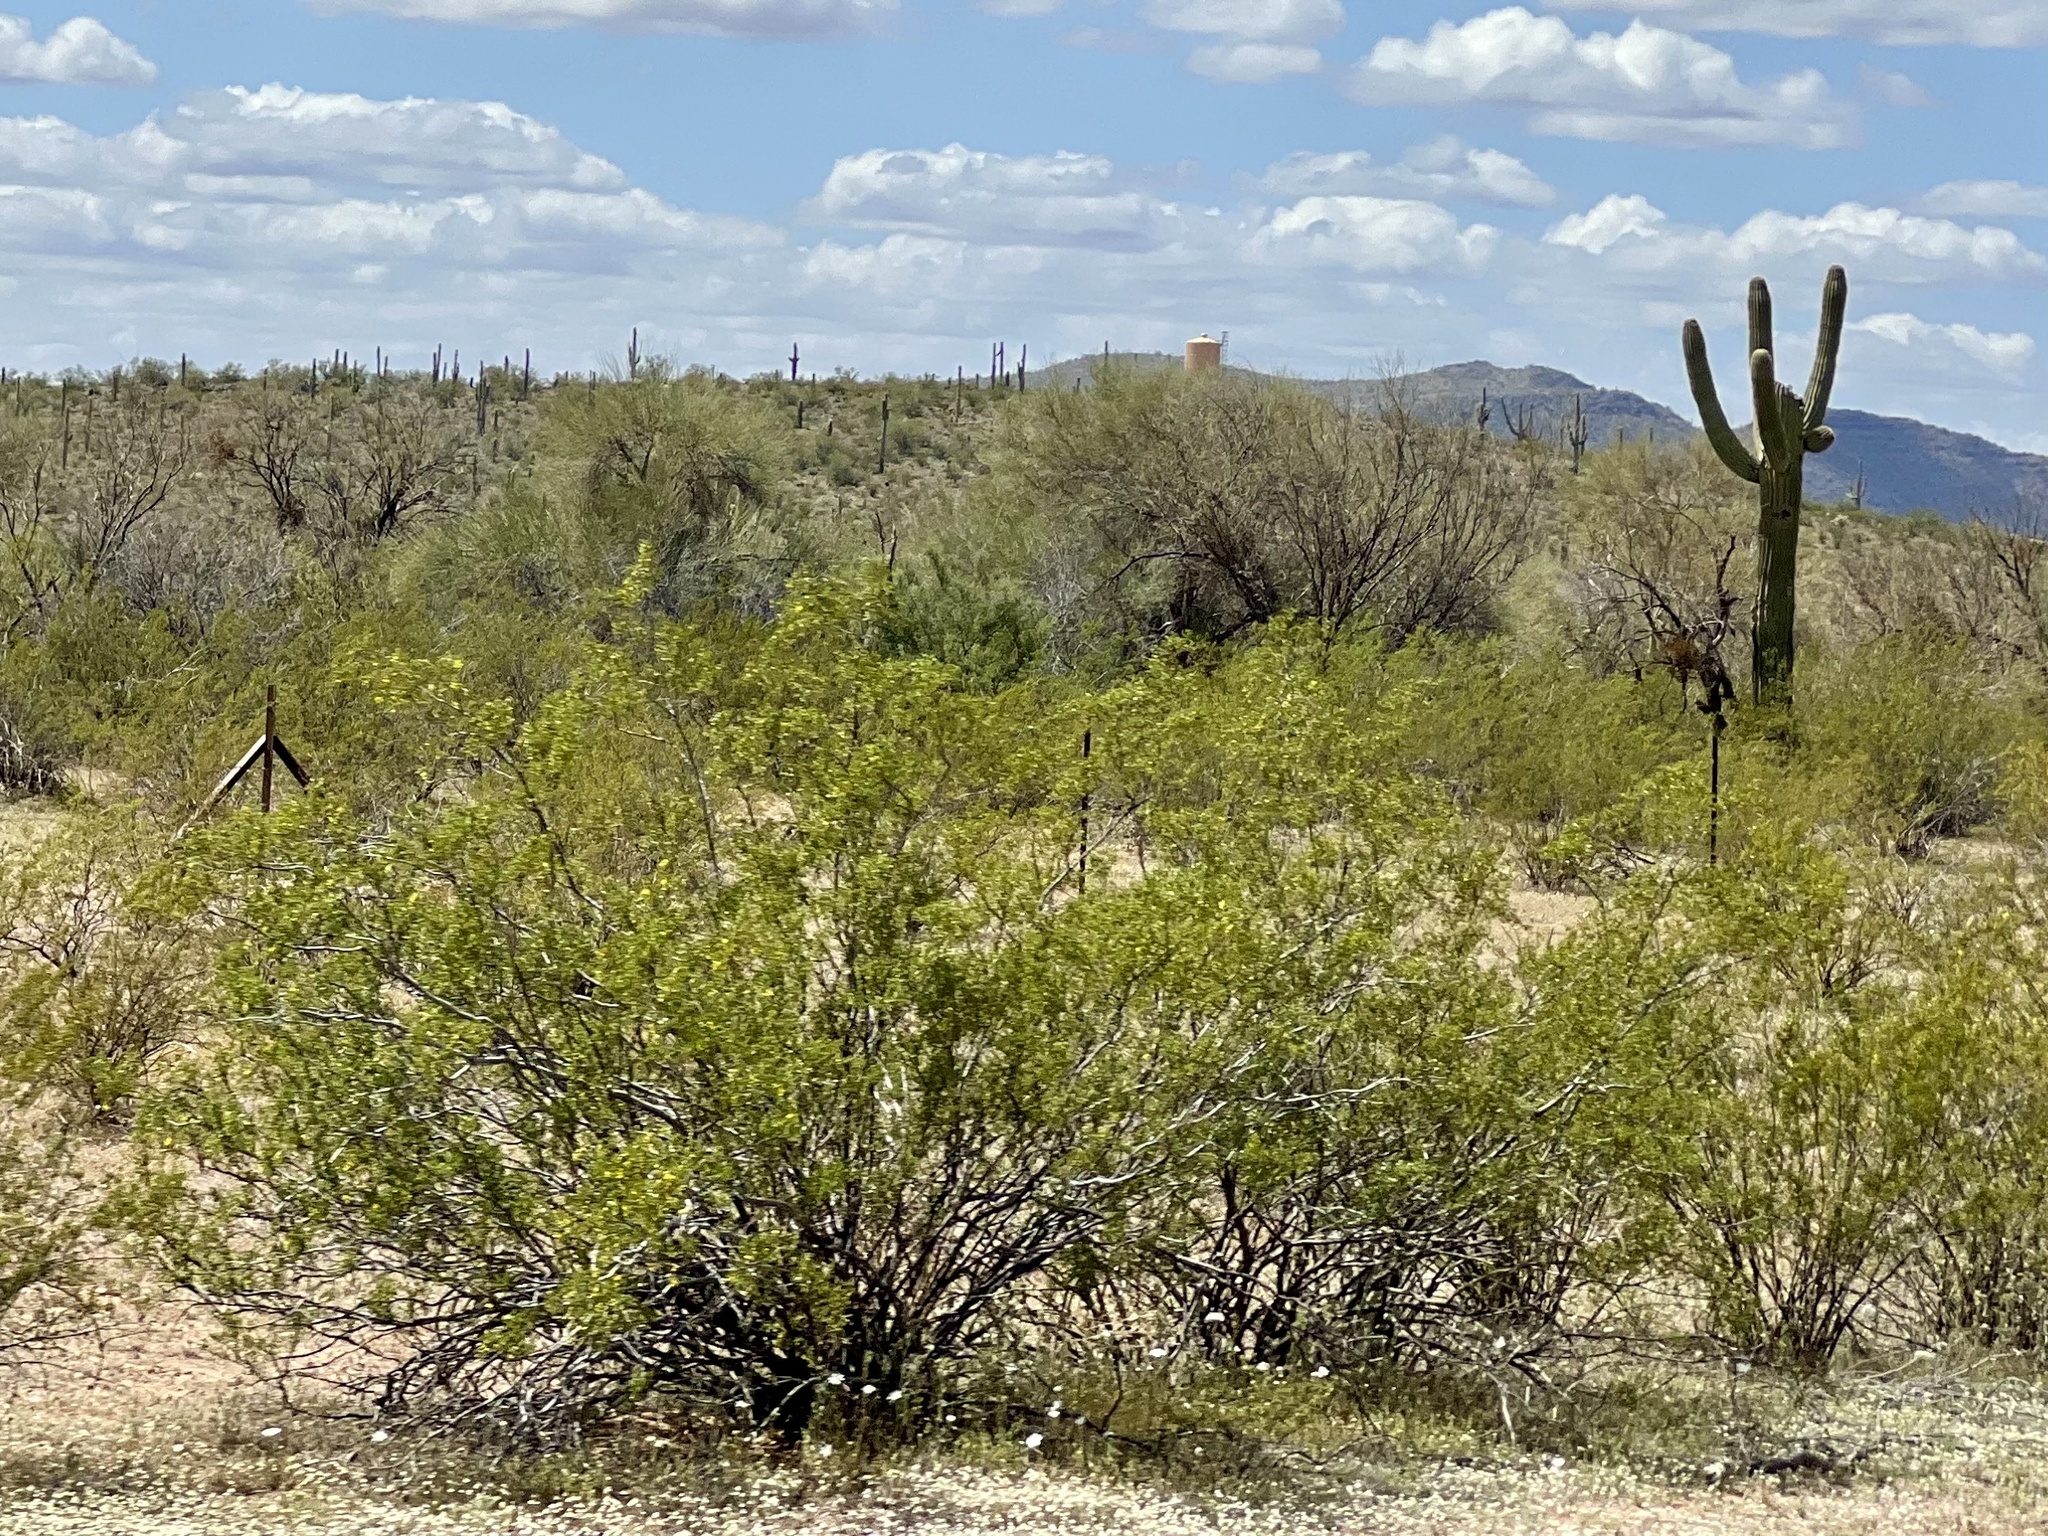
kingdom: Plantae
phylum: Tracheophyta
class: Magnoliopsida
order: Zygophyllales
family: Zygophyllaceae
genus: Larrea
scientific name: Larrea tridentata
